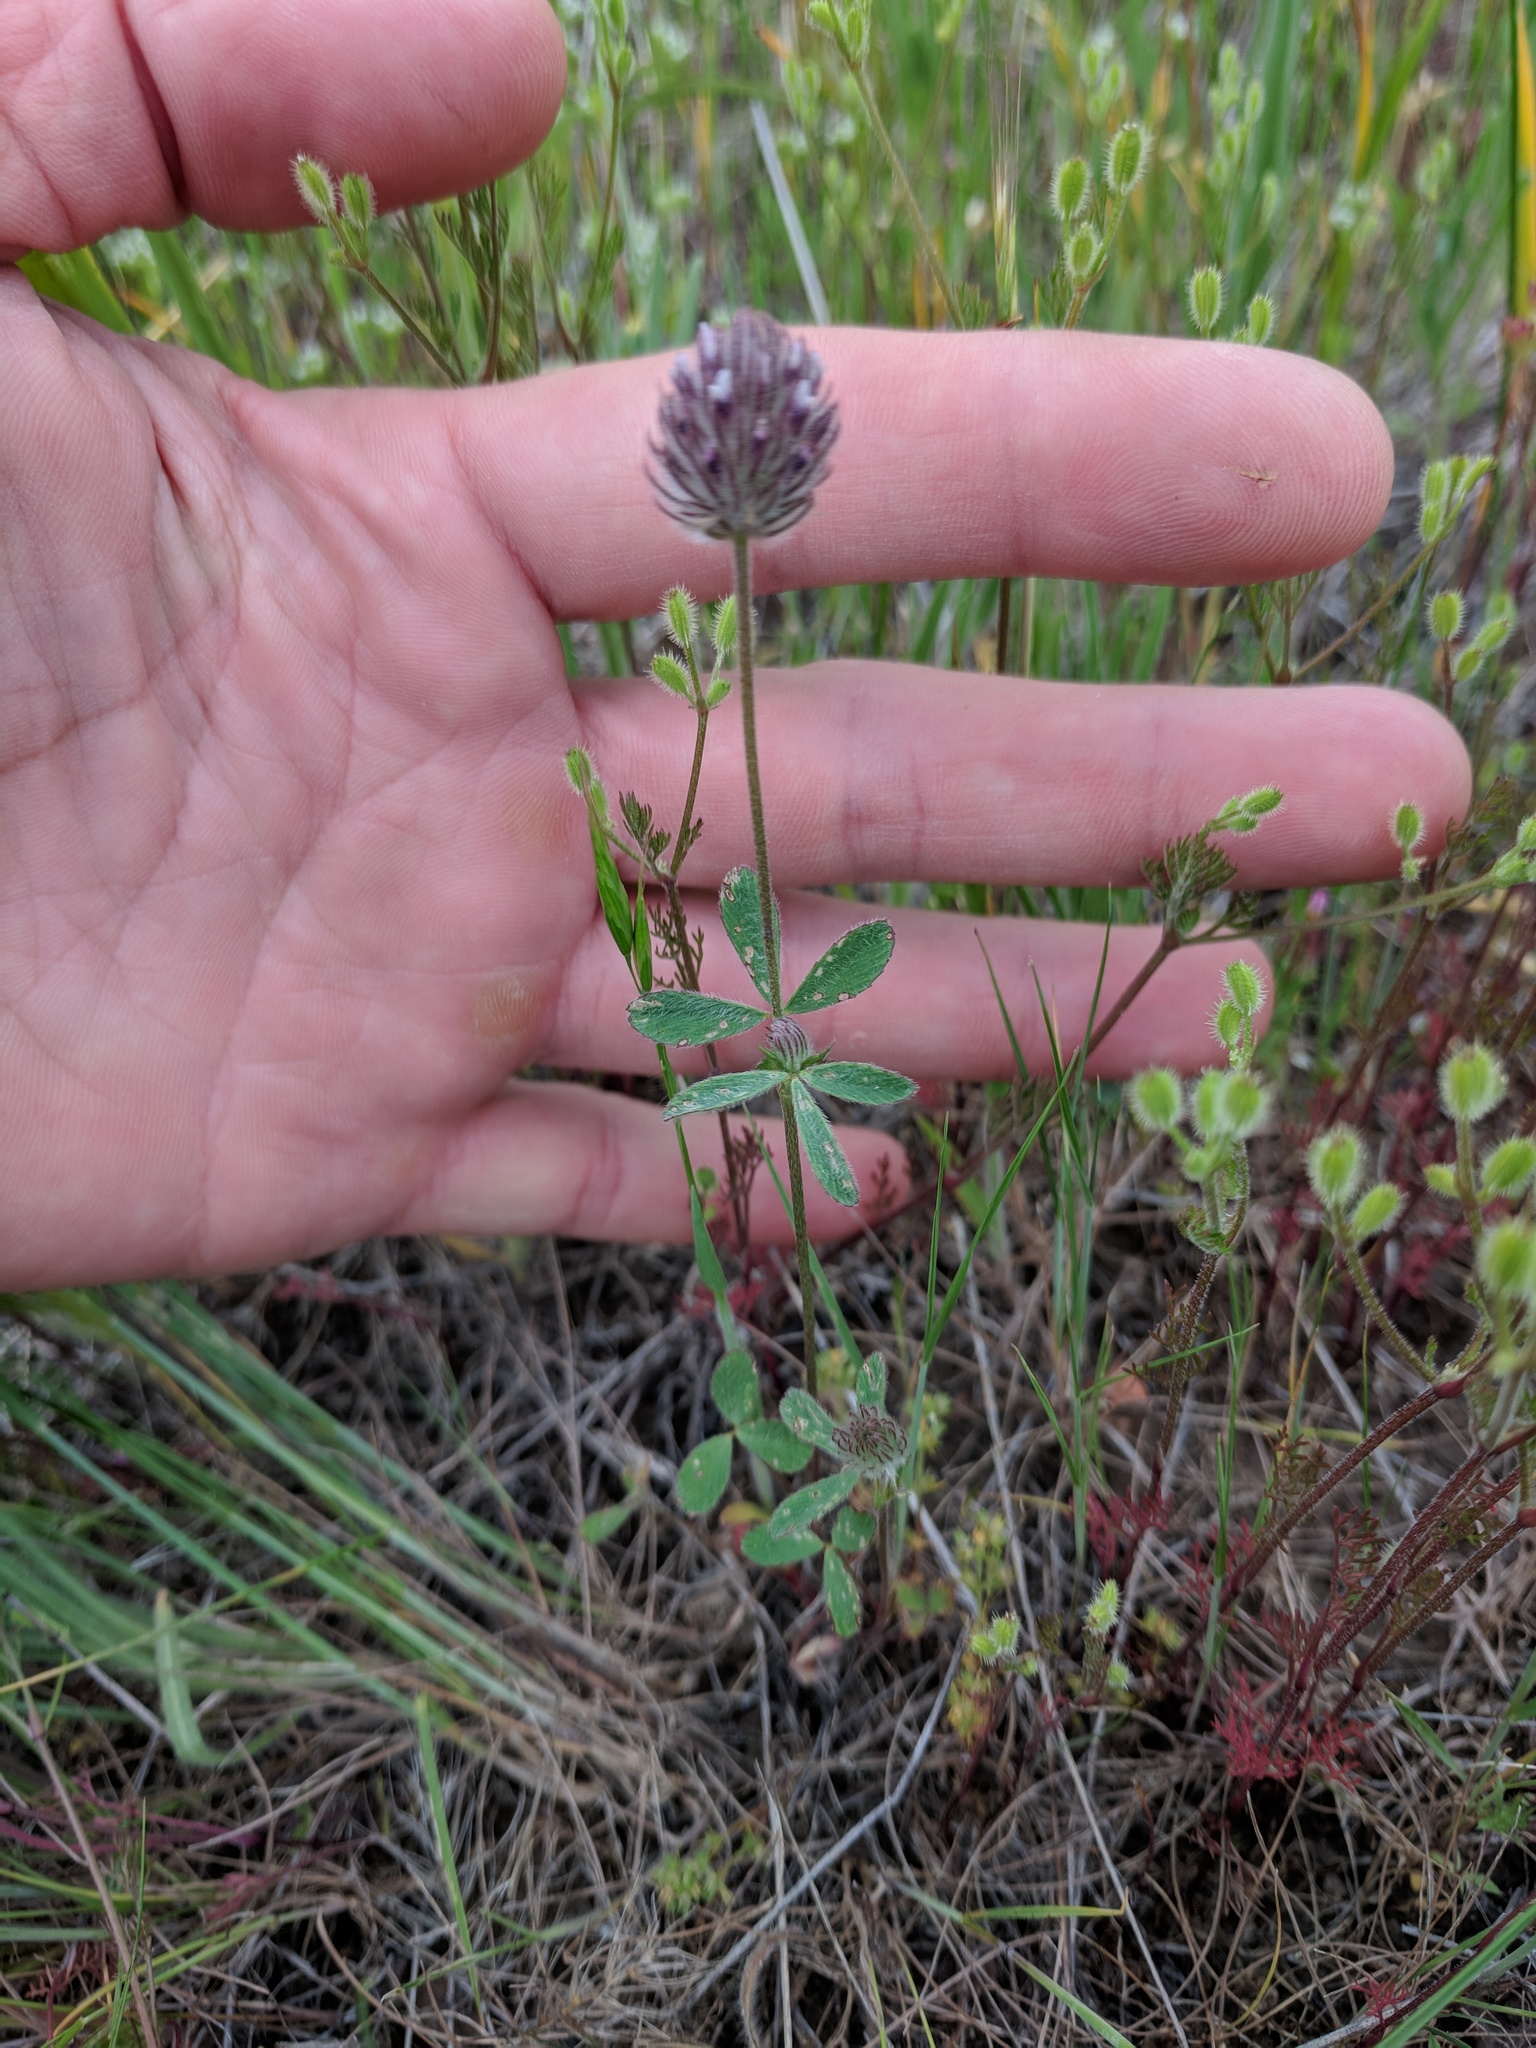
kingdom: Plantae
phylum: Tracheophyta
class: Magnoliopsida
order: Fabales
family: Fabaceae
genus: Trifolium
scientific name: Trifolium albopurpureum
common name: Rancheria clover
